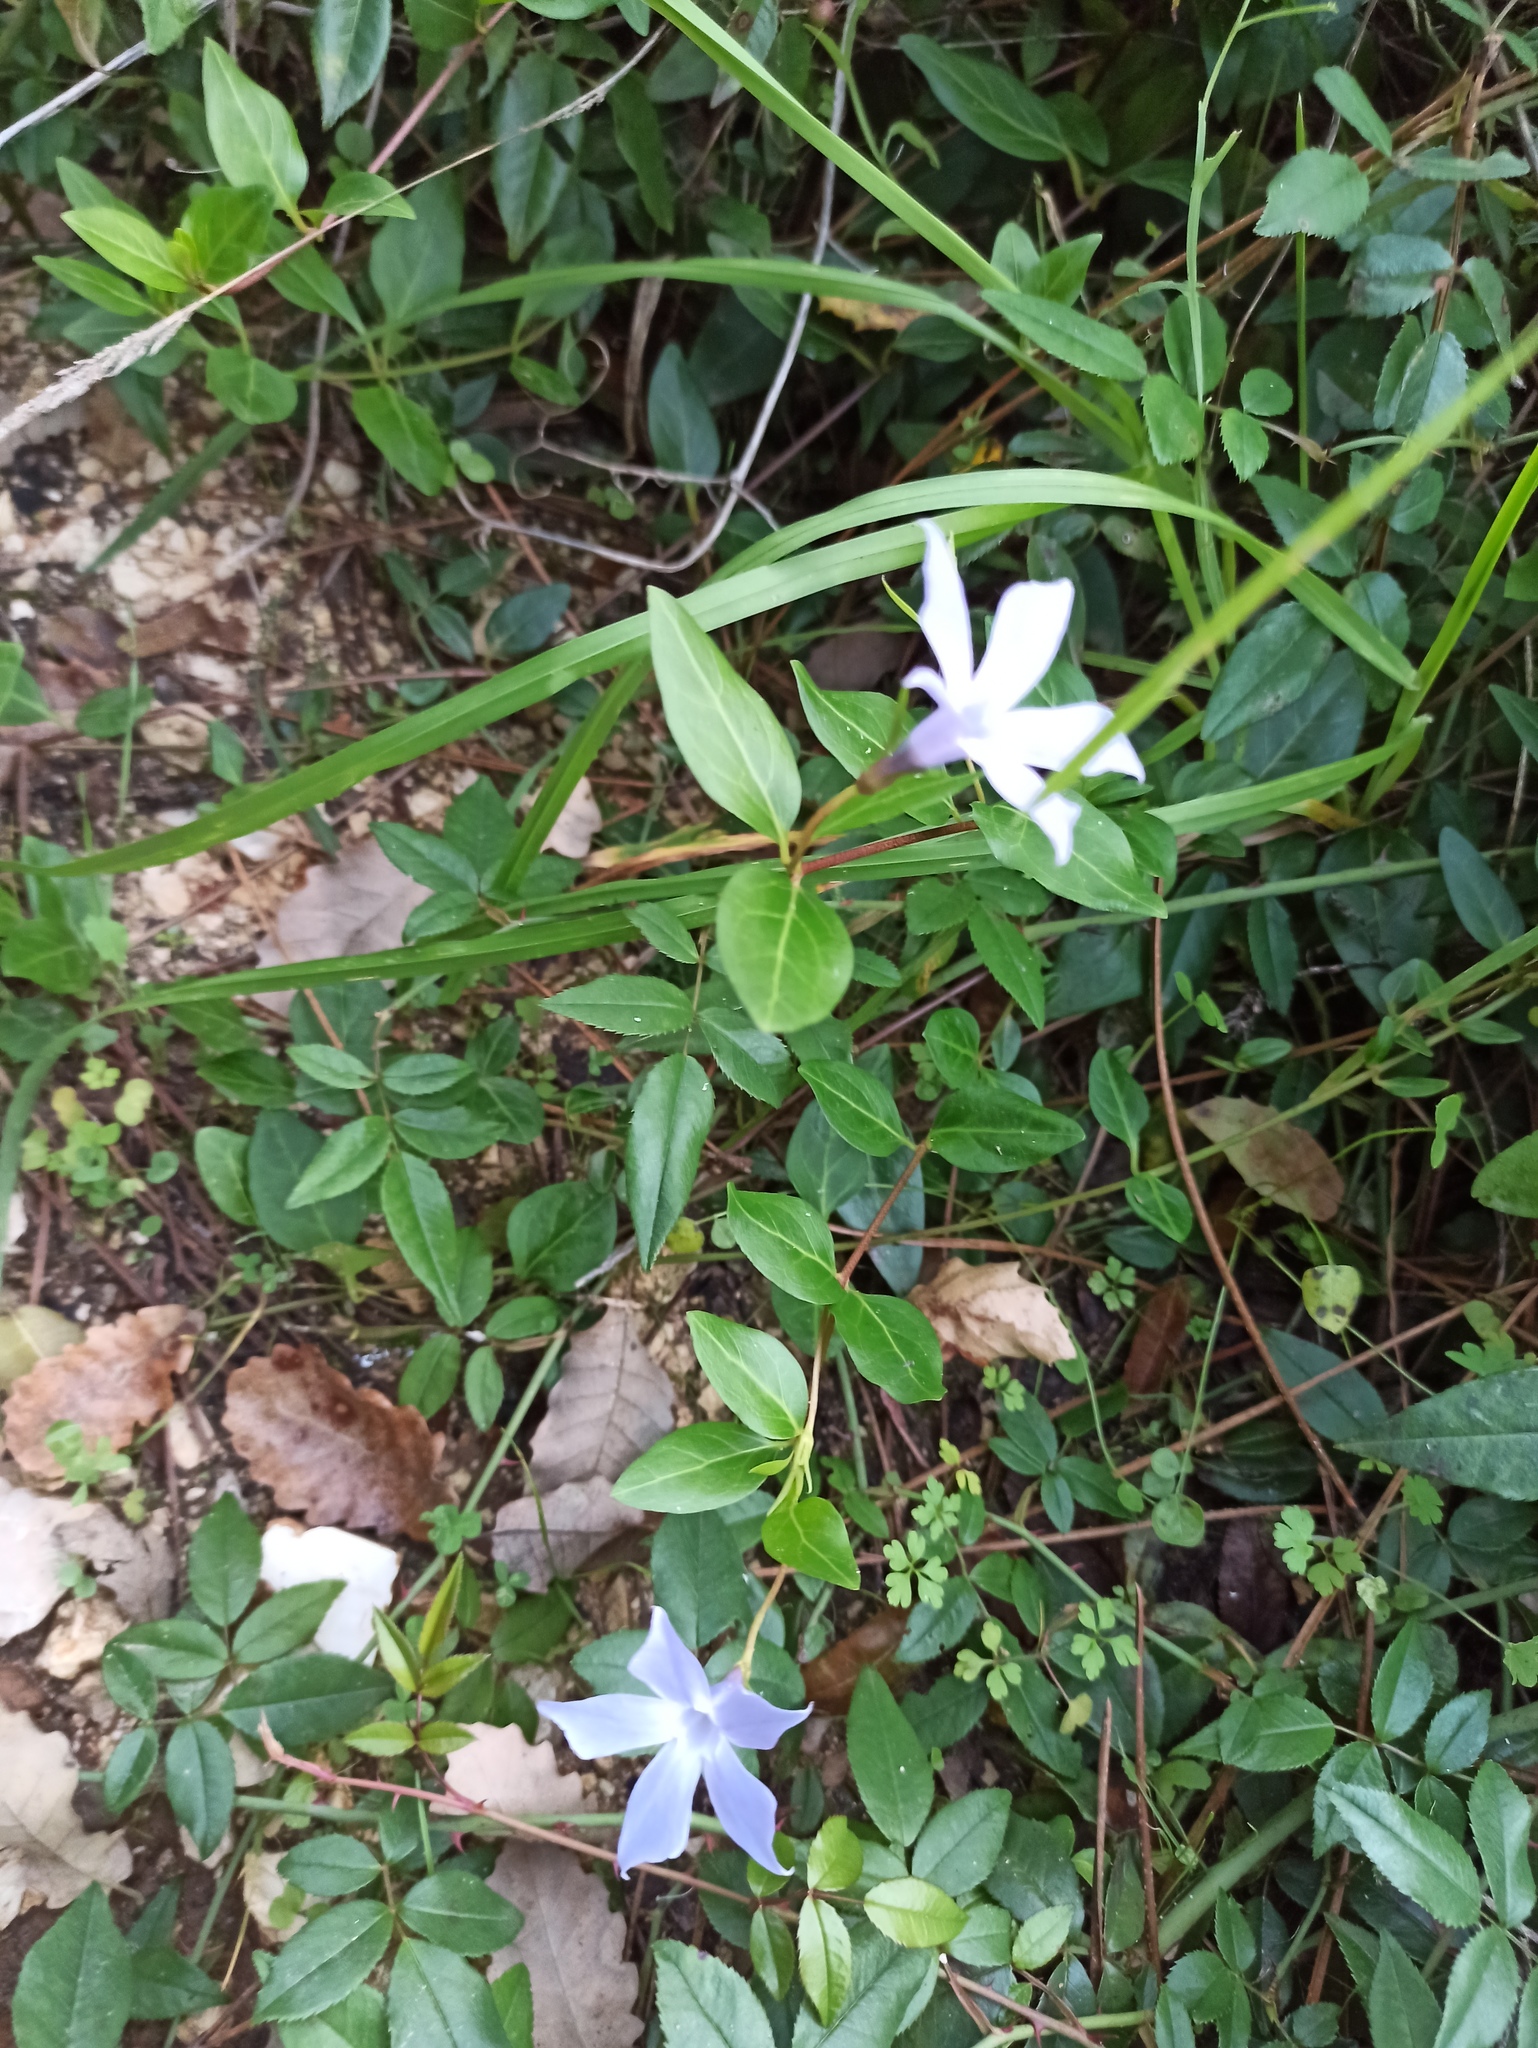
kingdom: Plantae
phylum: Tracheophyta
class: Magnoliopsida
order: Gentianales
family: Apocynaceae
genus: Vinca
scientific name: Vinca difformis
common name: Intermediate periwinkle
